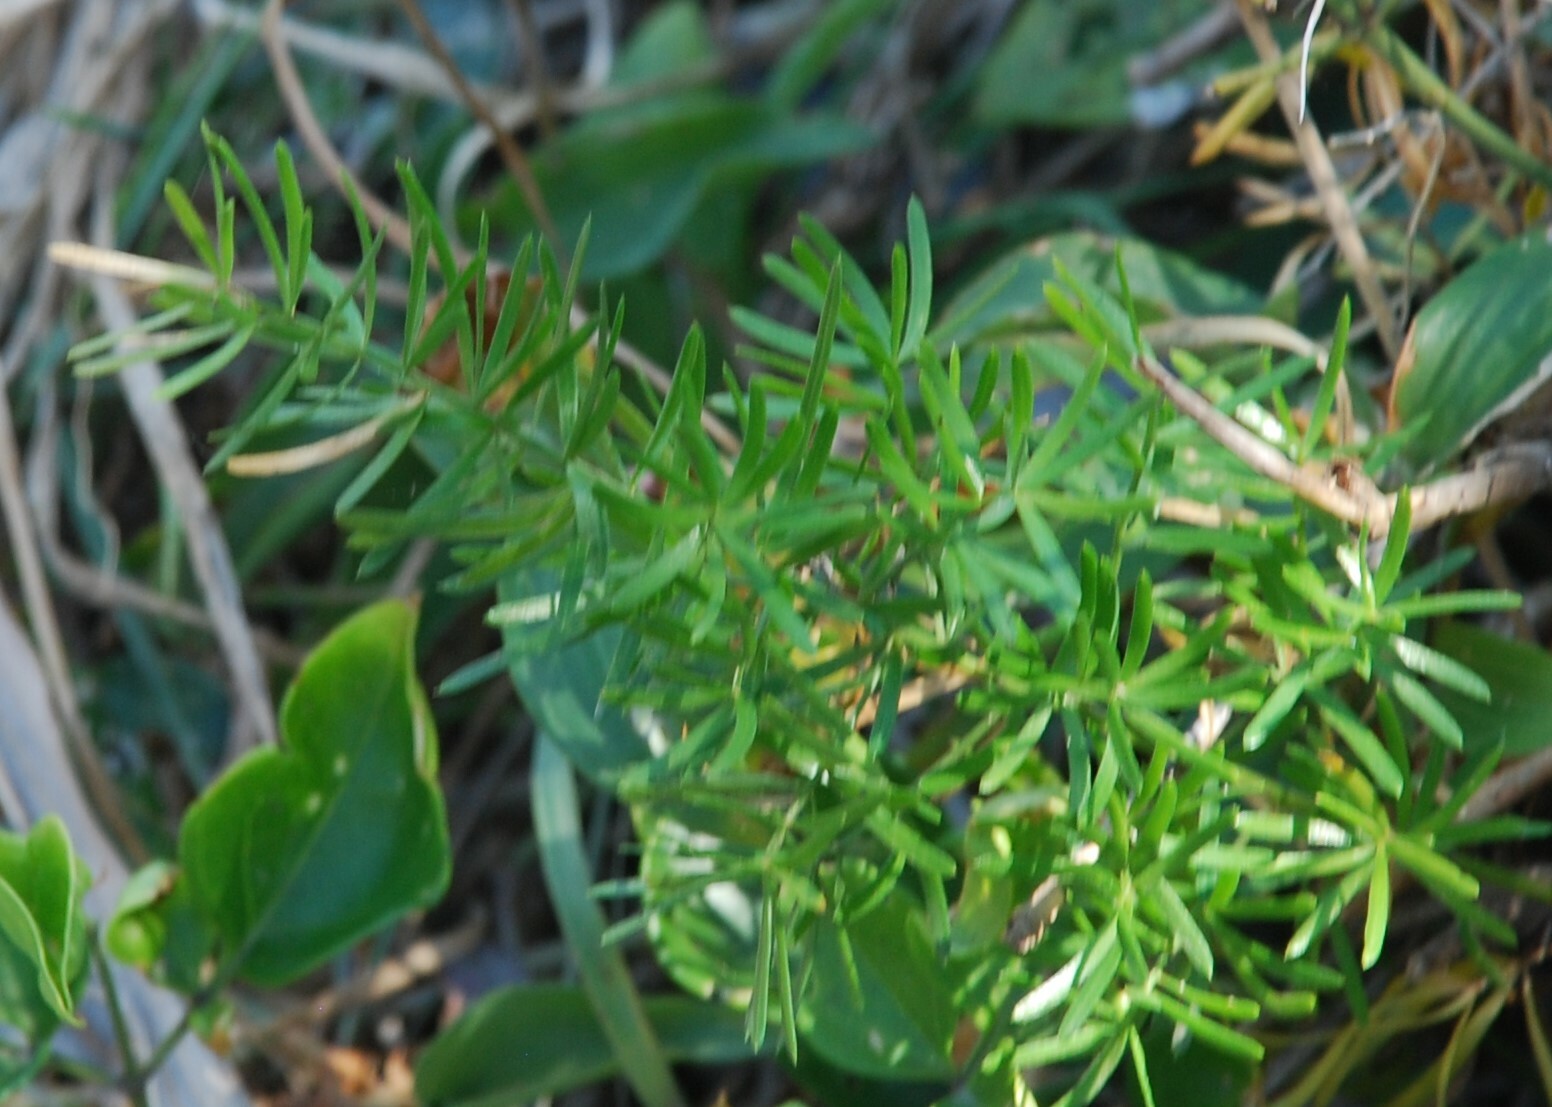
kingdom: Plantae
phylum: Tracheophyta
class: Liliopsida
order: Asparagales
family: Asparagaceae
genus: Asparagus
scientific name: Asparagus aethiopicus
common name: Sprenger's asparagus fern
